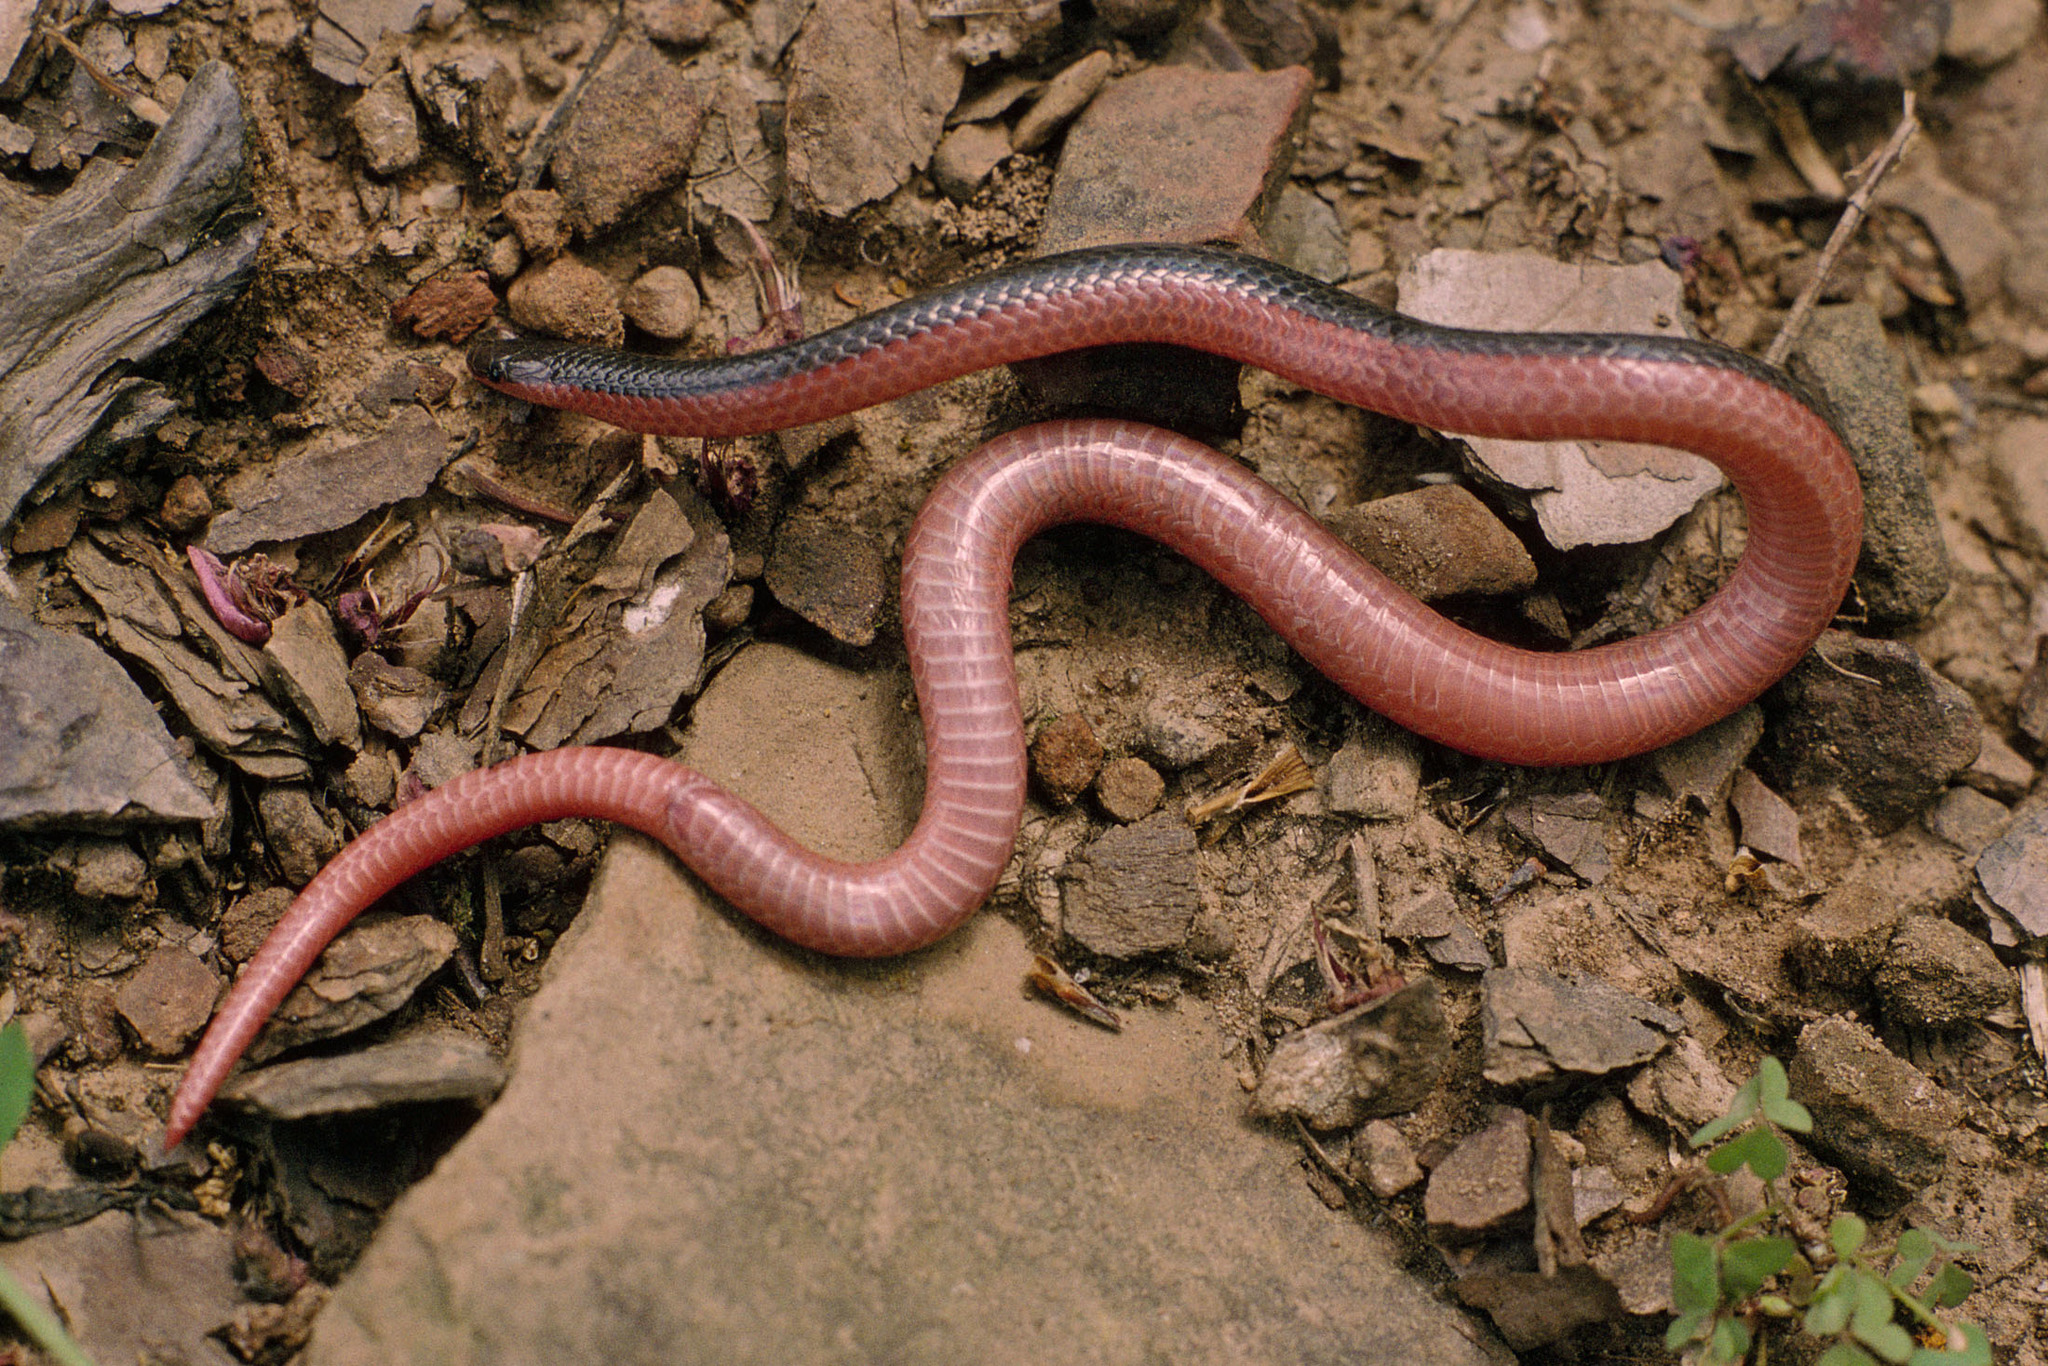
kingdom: Animalia
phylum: Chordata
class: Squamata
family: Colubridae
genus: Carphophis
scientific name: Carphophis vermis
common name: Western worm snake
